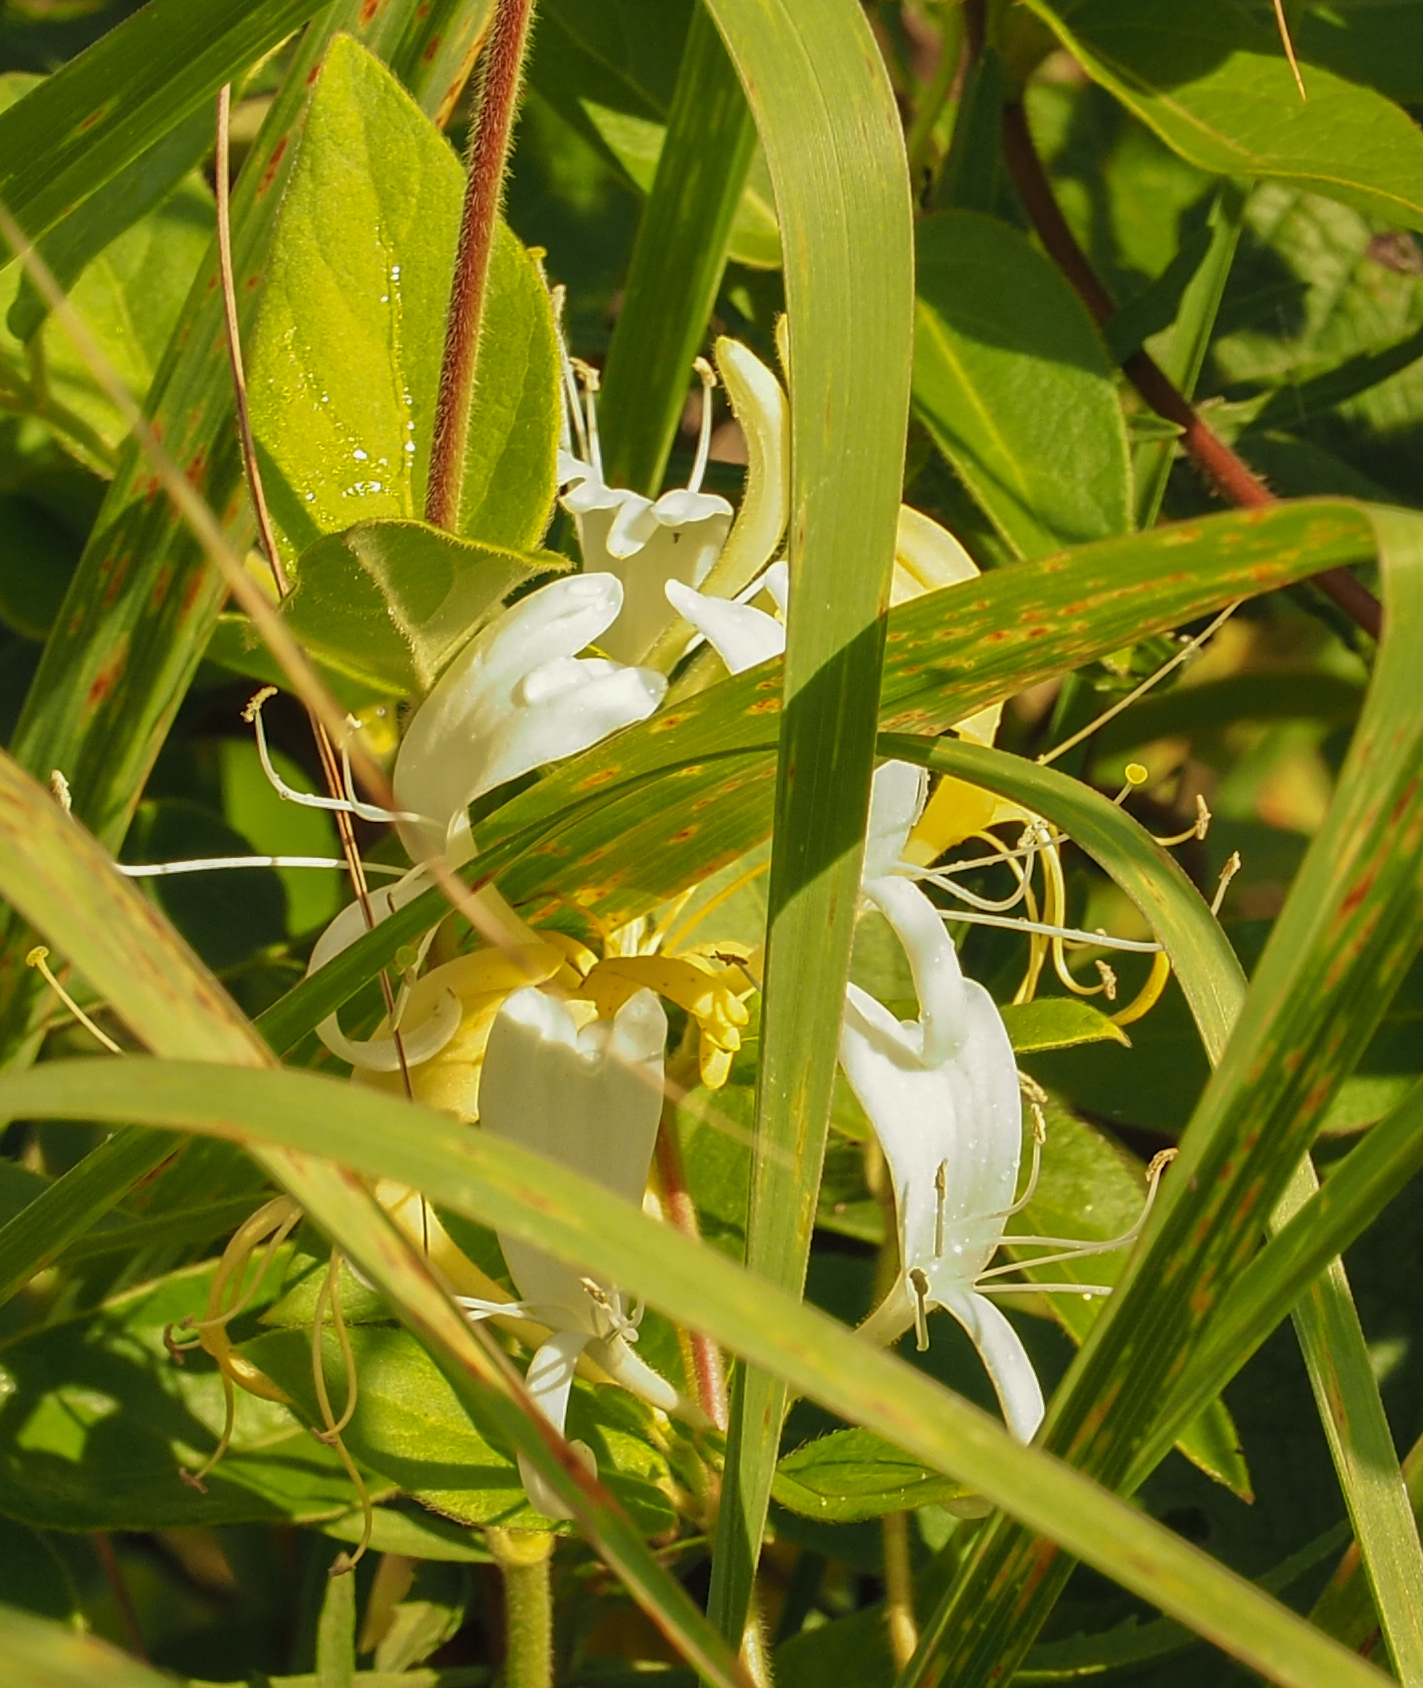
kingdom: Plantae
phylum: Tracheophyta
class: Magnoliopsida
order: Dipsacales
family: Caprifoliaceae
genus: Lonicera
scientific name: Lonicera japonica
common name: Japanese honeysuckle
